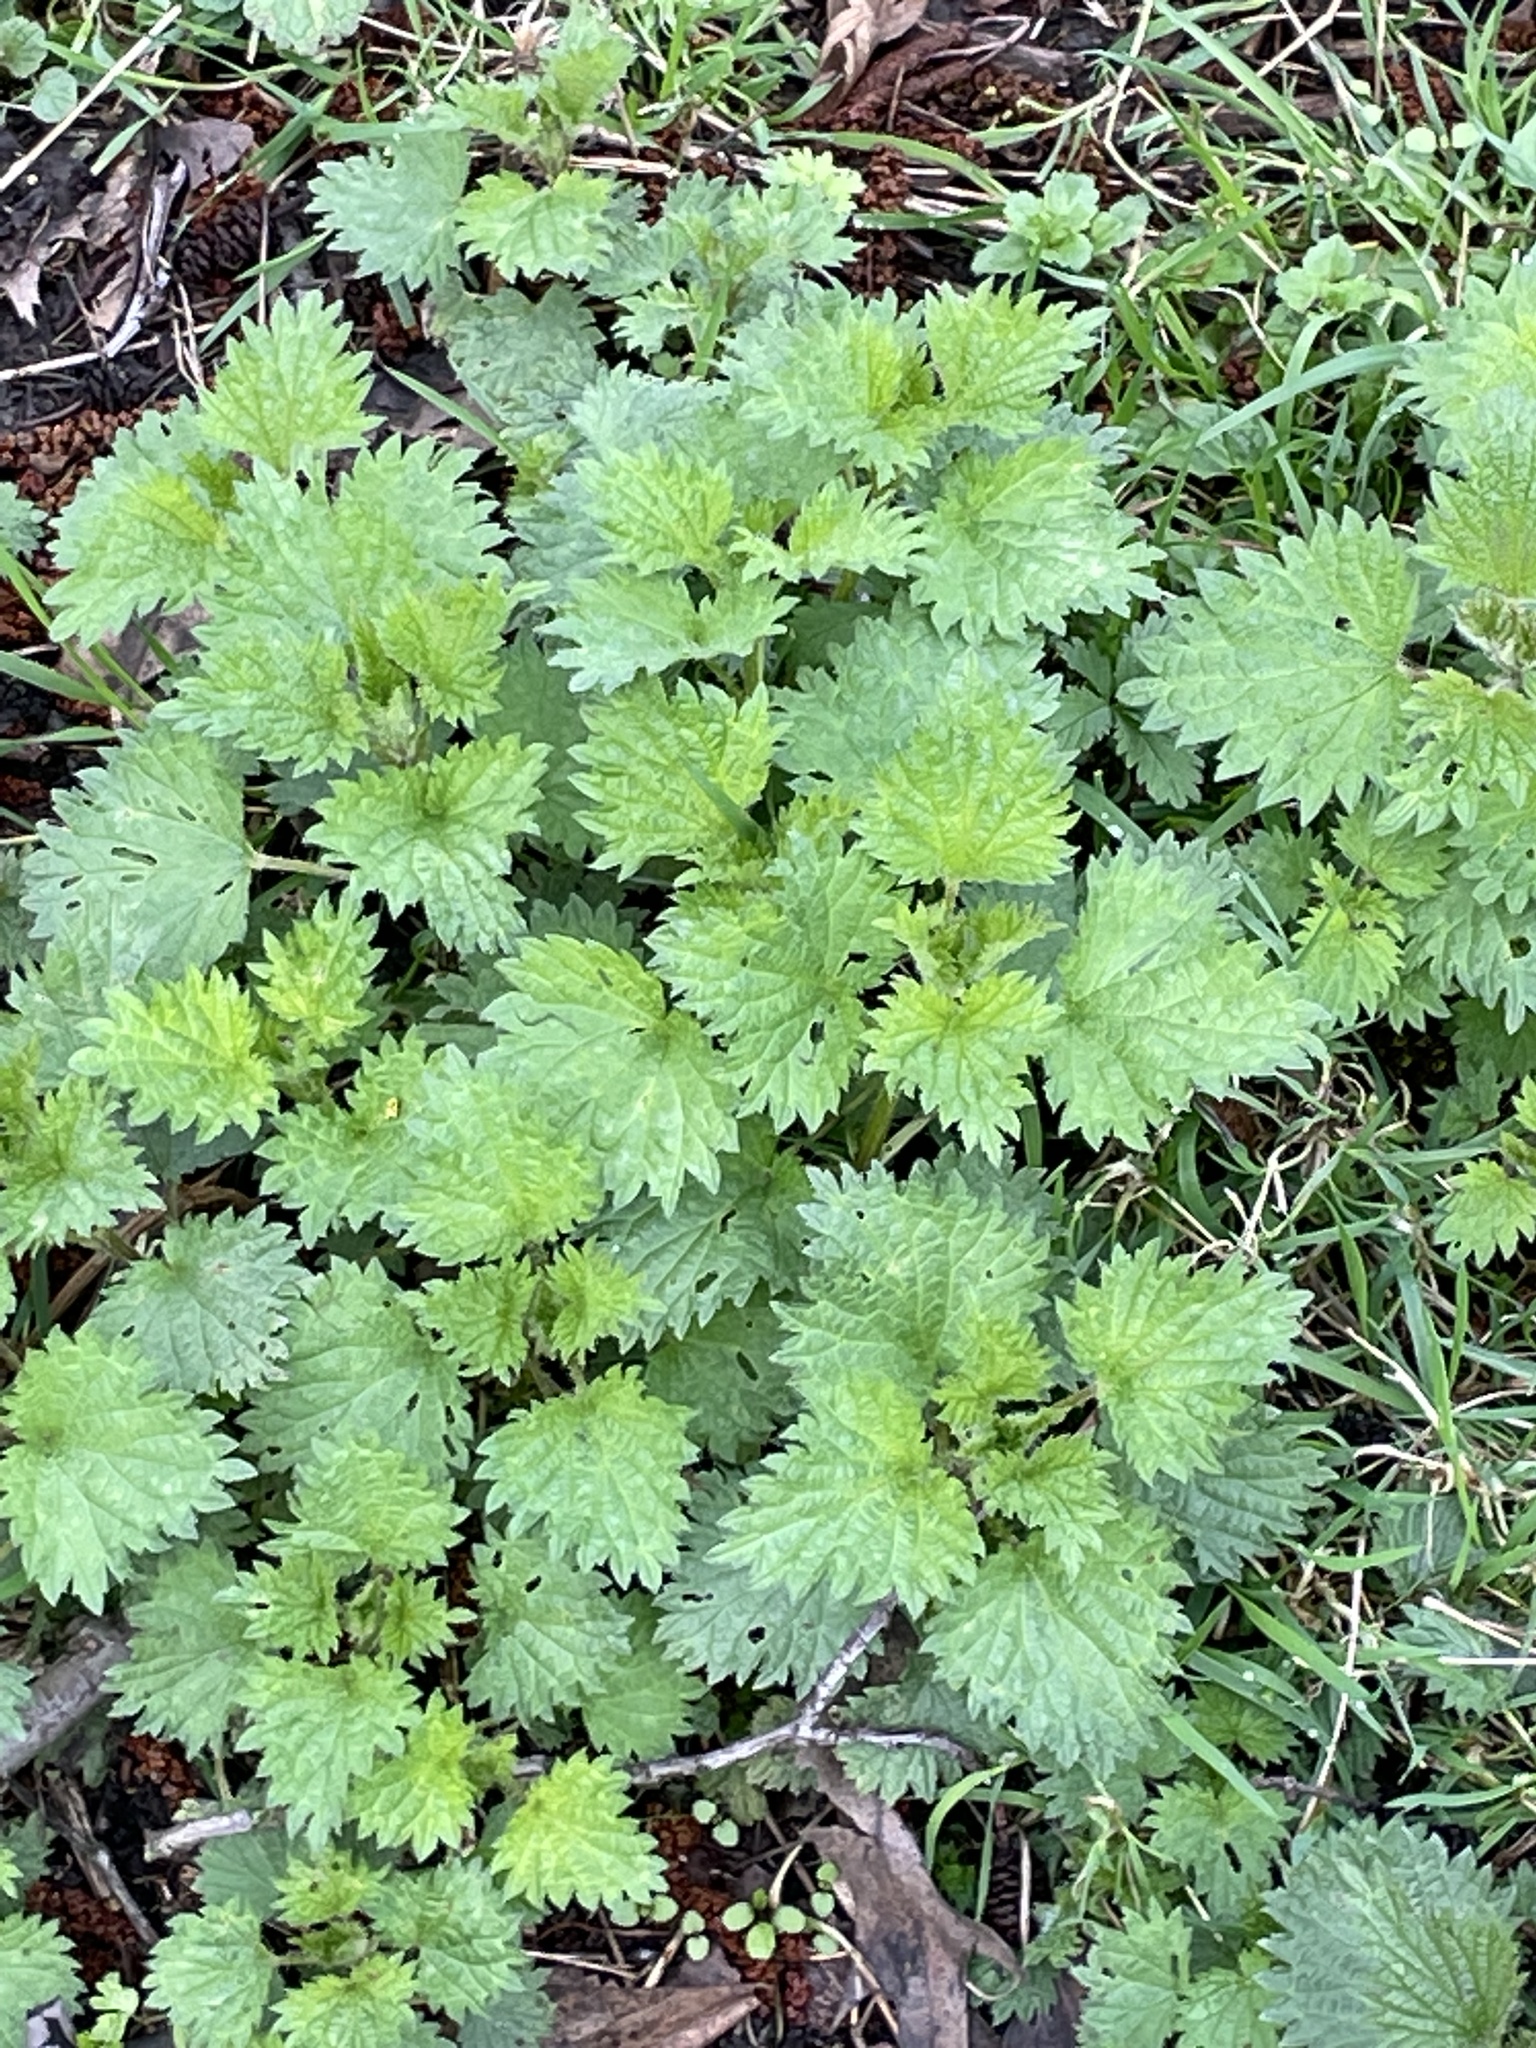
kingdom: Plantae
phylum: Tracheophyta
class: Magnoliopsida
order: Rosales
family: Urticaceae
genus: Urtica
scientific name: Urtica dioica
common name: Common nettle
